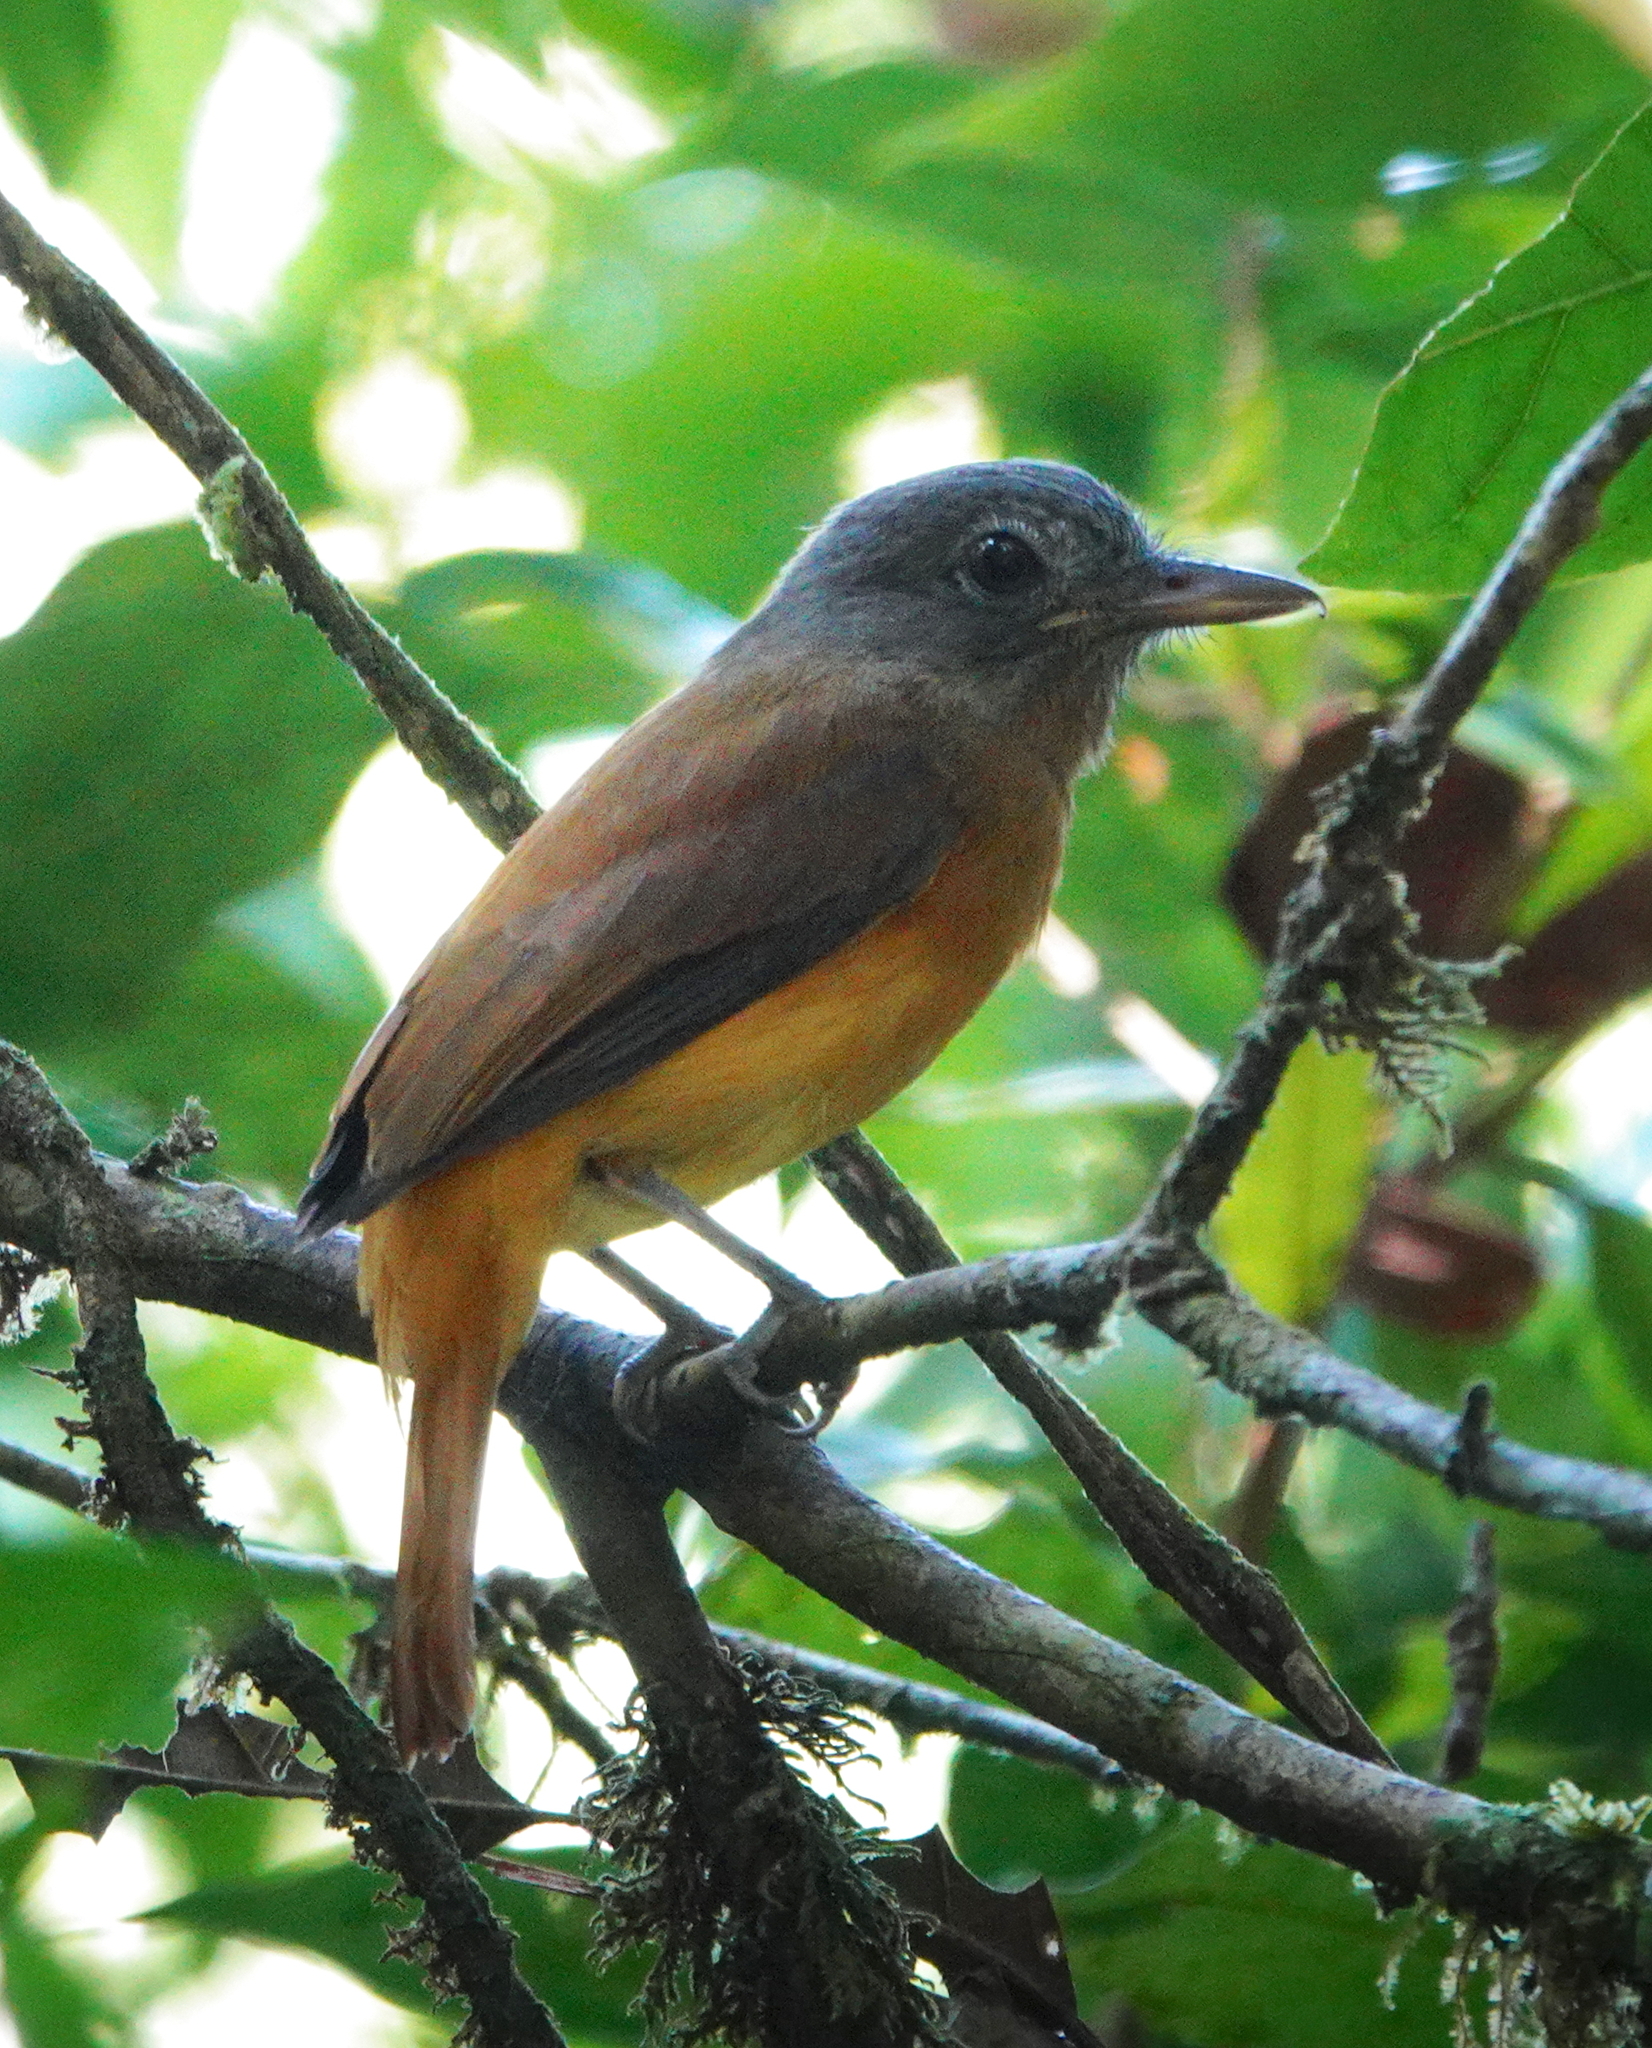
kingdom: Animalia
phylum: Chordata
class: Aves
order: Passeriformes
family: Tyrannidae
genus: Attila
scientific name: Attila citriniventris
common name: Citron-bellied attila
